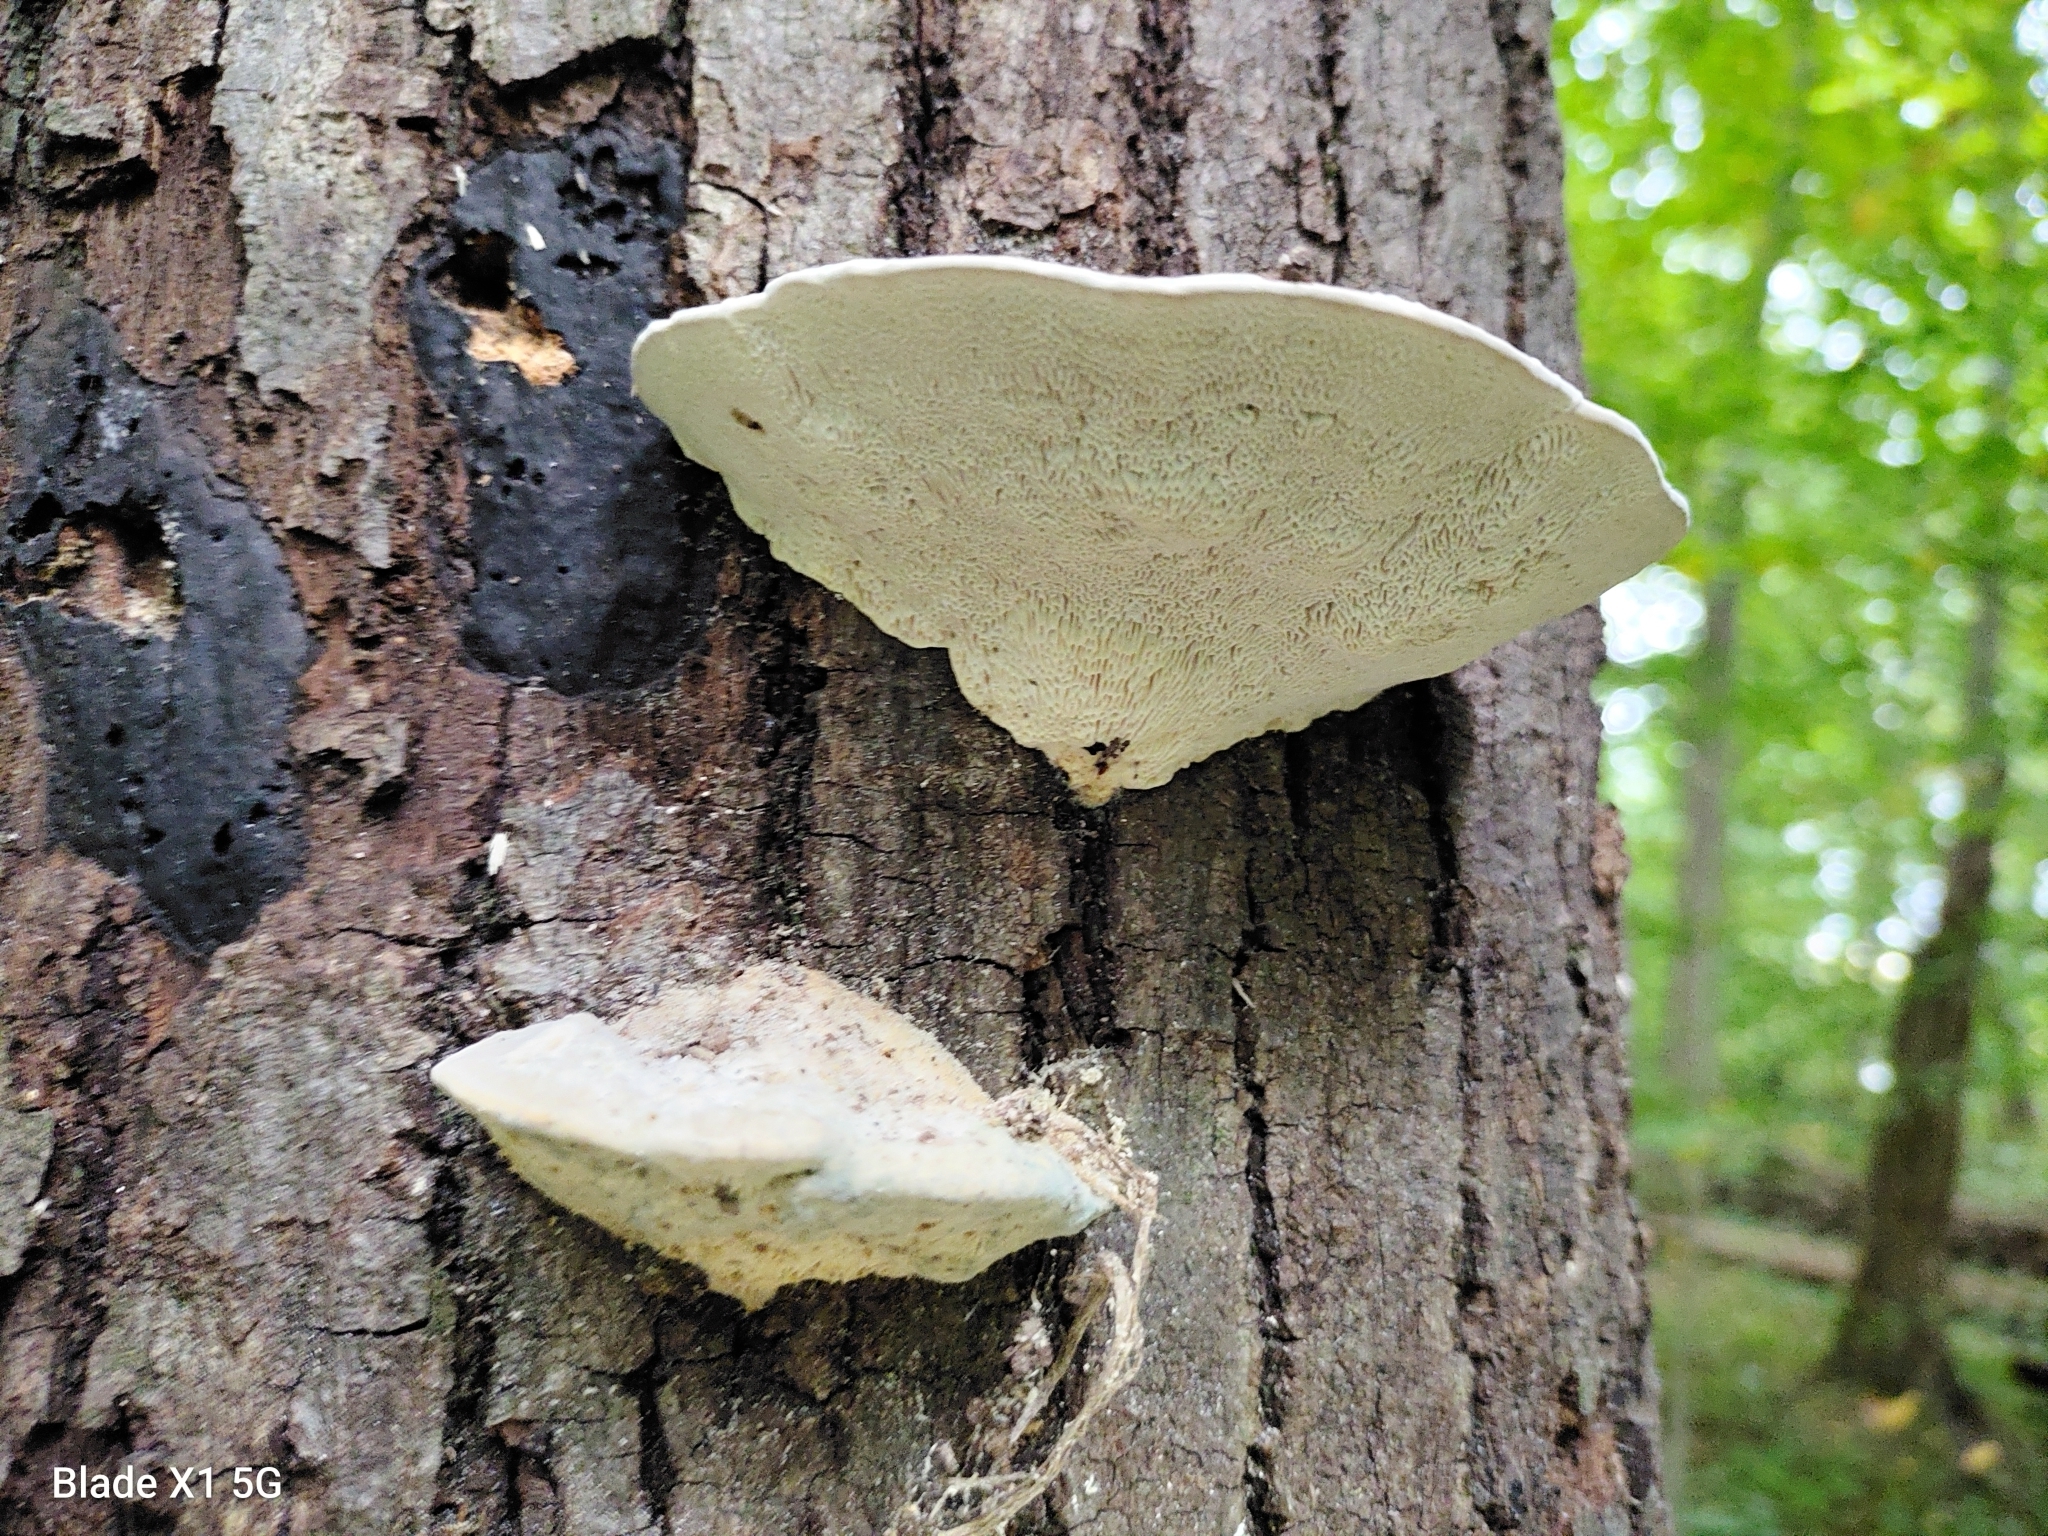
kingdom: Fungi
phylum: Basidiomycota
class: Agaricomycetes
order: Polyporales
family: Polyporaceae
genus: Trametes
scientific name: Trametes gibbosa
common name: Lumpy bracket
